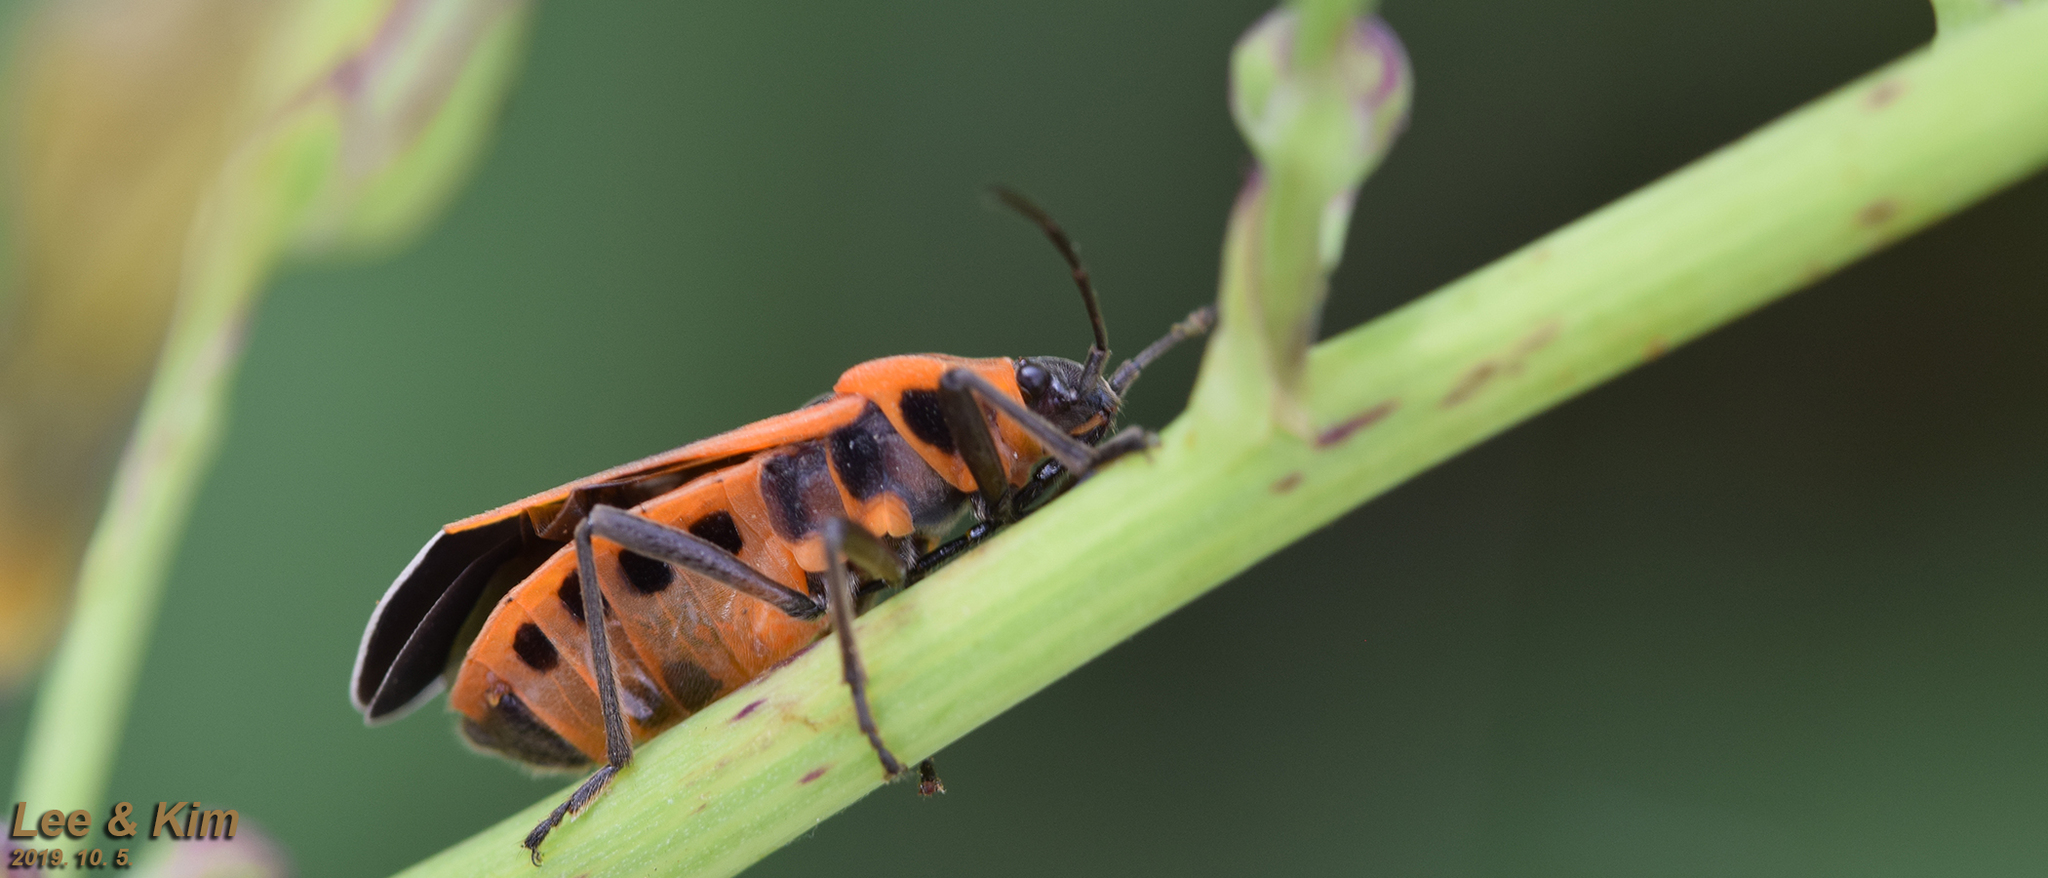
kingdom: Animalia
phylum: Arthropoda
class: Insecta
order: Hemiptera
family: Lygaeidae
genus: Tropidothorax
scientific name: Tropidothorax cruciger
